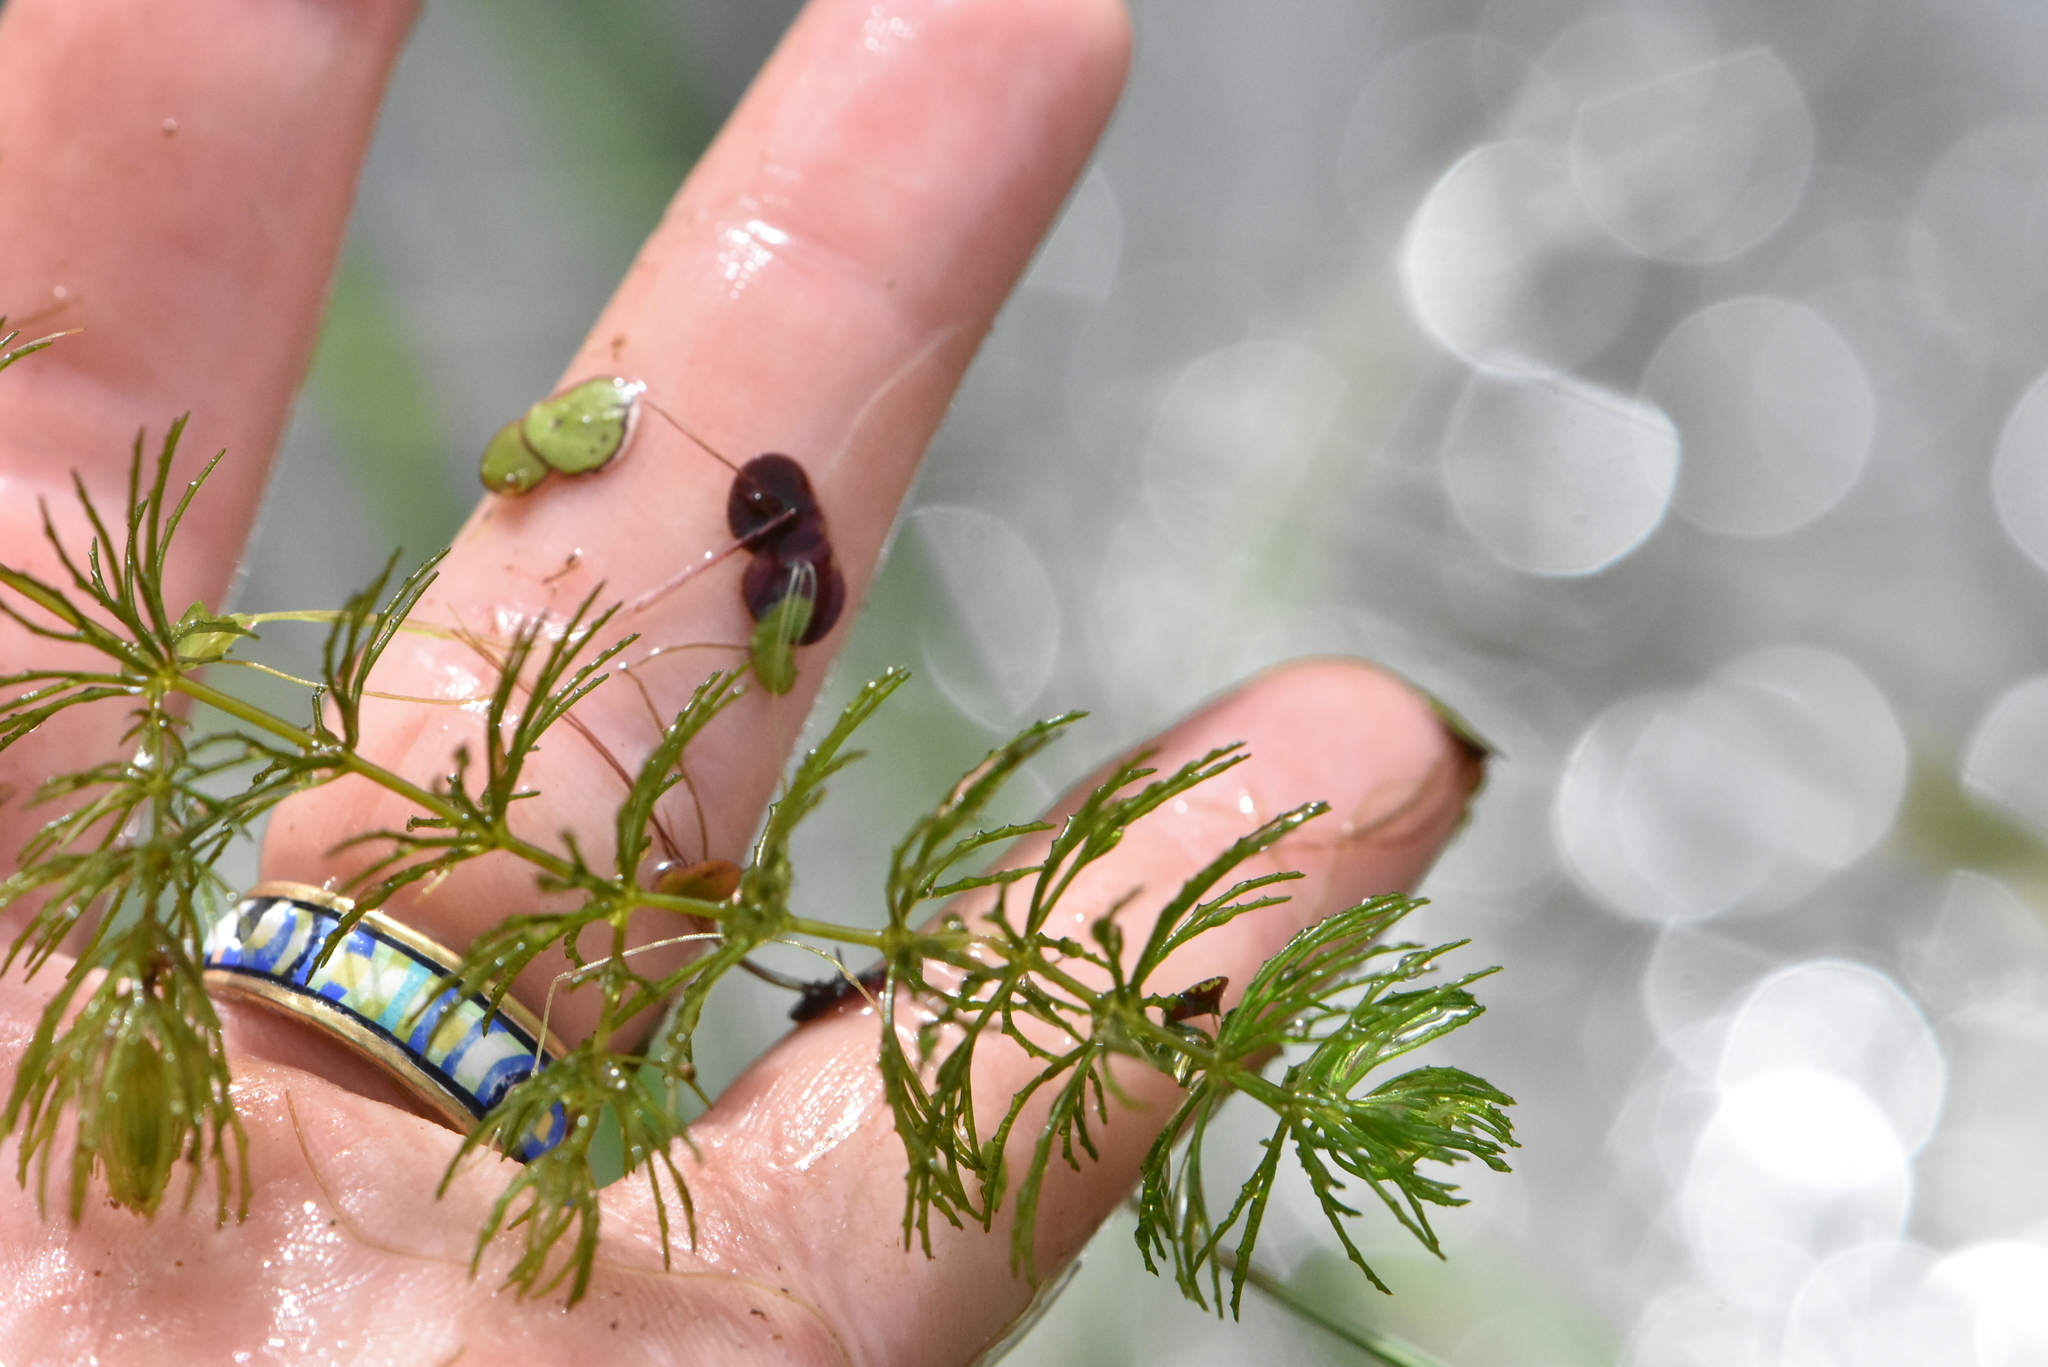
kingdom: Plantae
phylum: Tracheophyta
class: Magnoliopsida
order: Ceratophyllales
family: Ceratophyllaceae
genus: Ceratophyllum
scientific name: Ceratophyllum demersum
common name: Rigid hornwort
